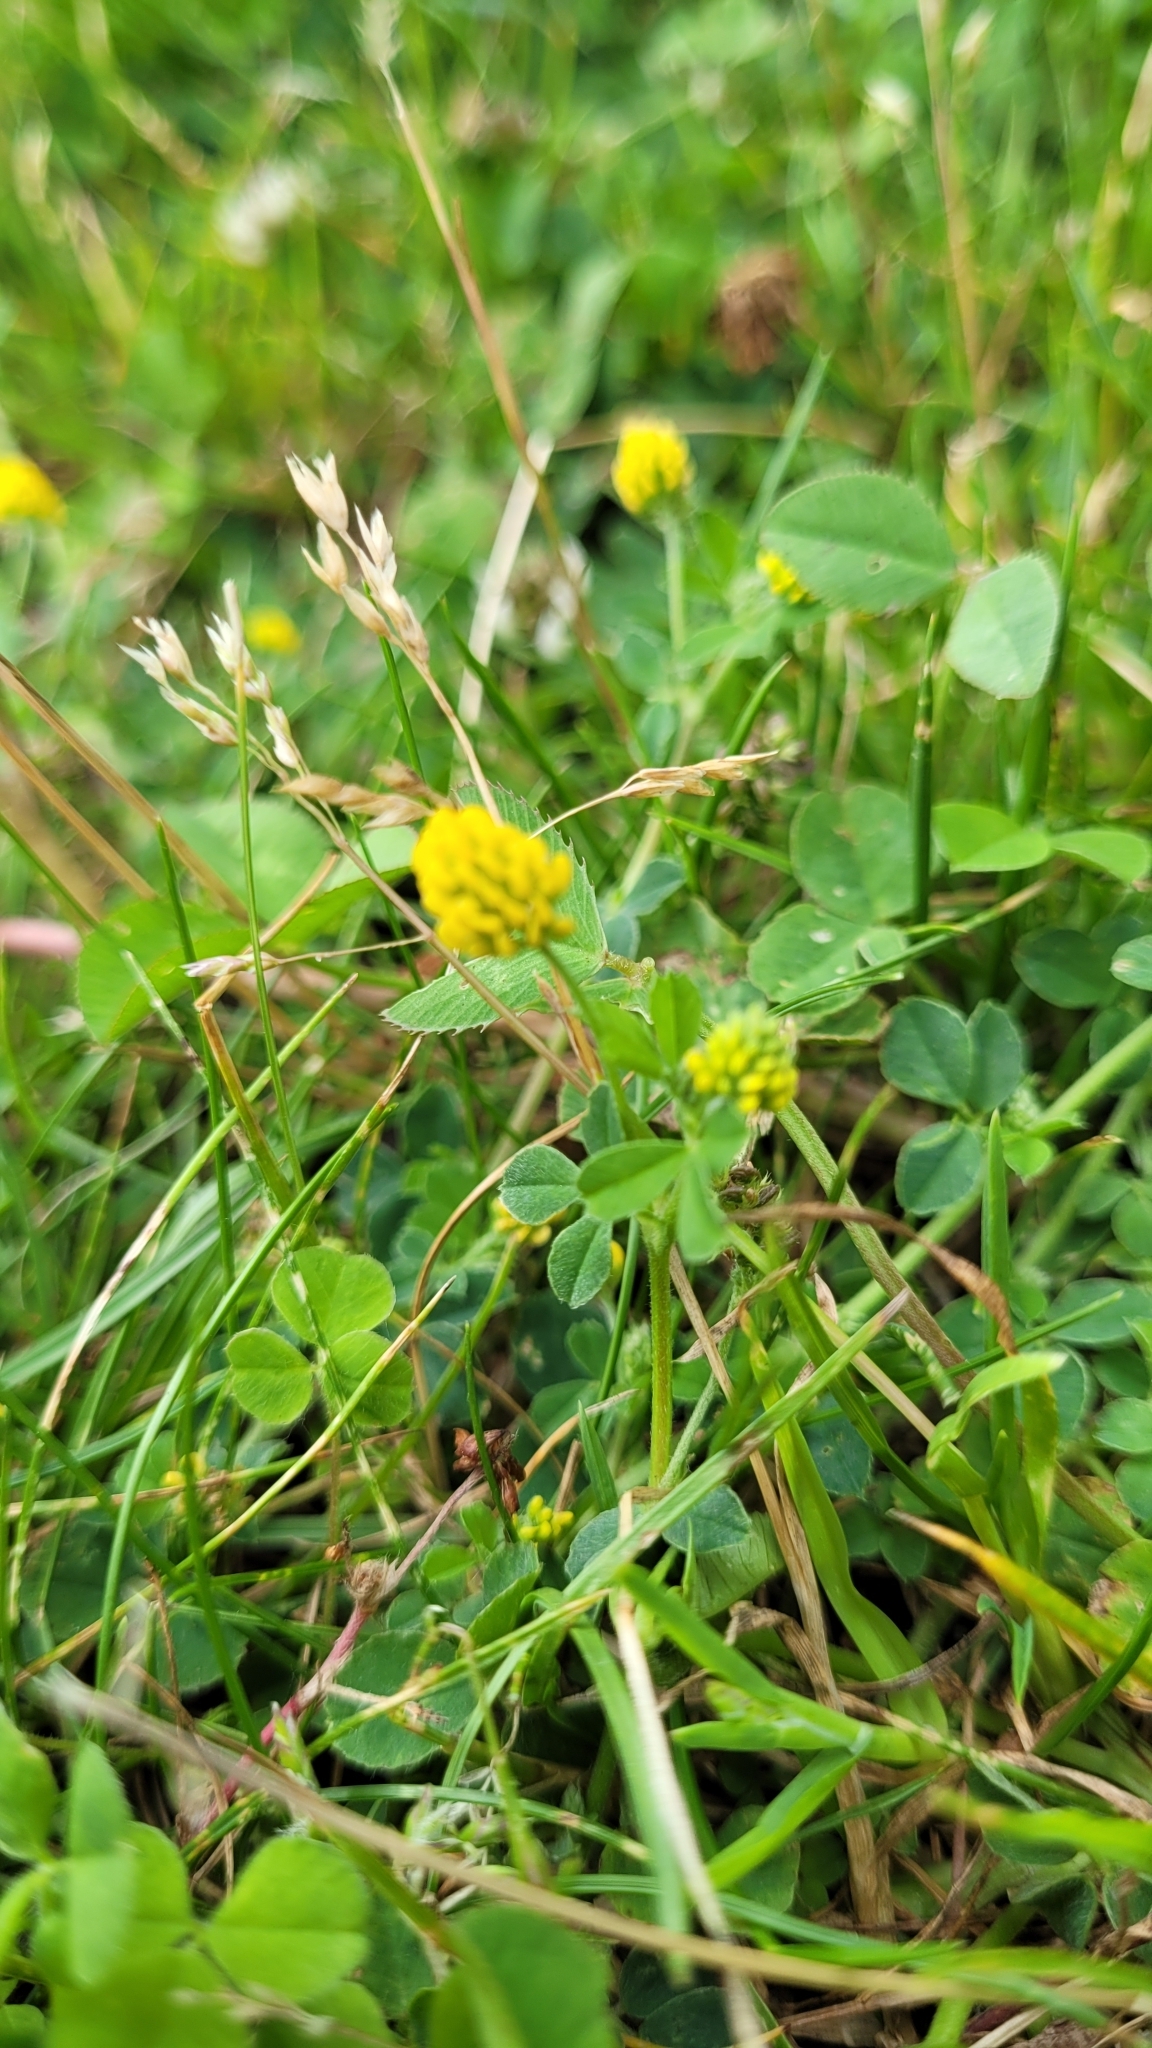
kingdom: Plantae
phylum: Tracheophyta
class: Magnoliopsida
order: Fabales
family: Fabaceae
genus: Medicago
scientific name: Medicago lupulina
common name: Black medick
